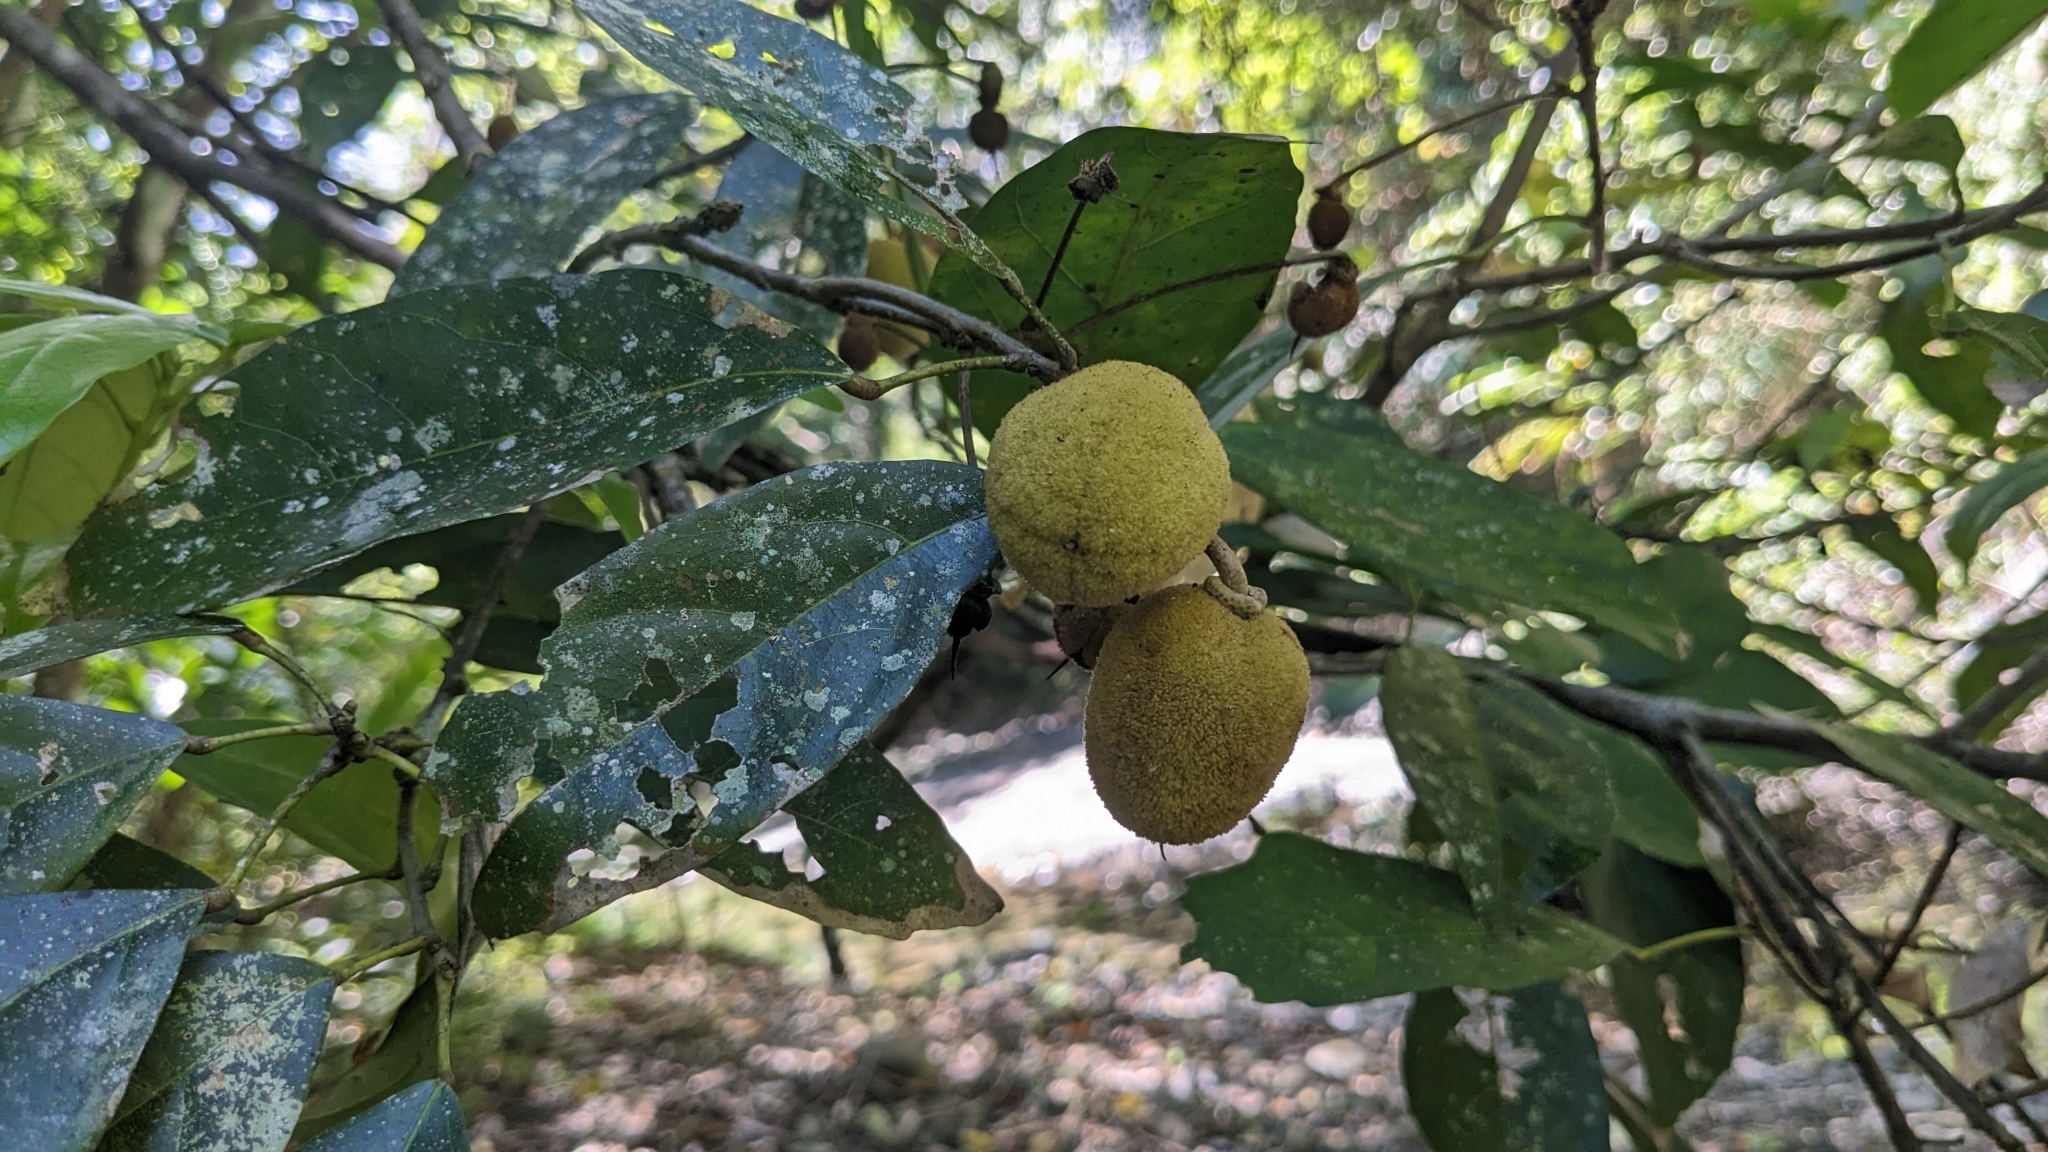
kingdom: Plantae
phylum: Tracheophyta
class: Magnoliopsida
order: Oxalidales
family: Elaeocarpaceae
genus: Sloanea
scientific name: Sloanea dasycarpa
